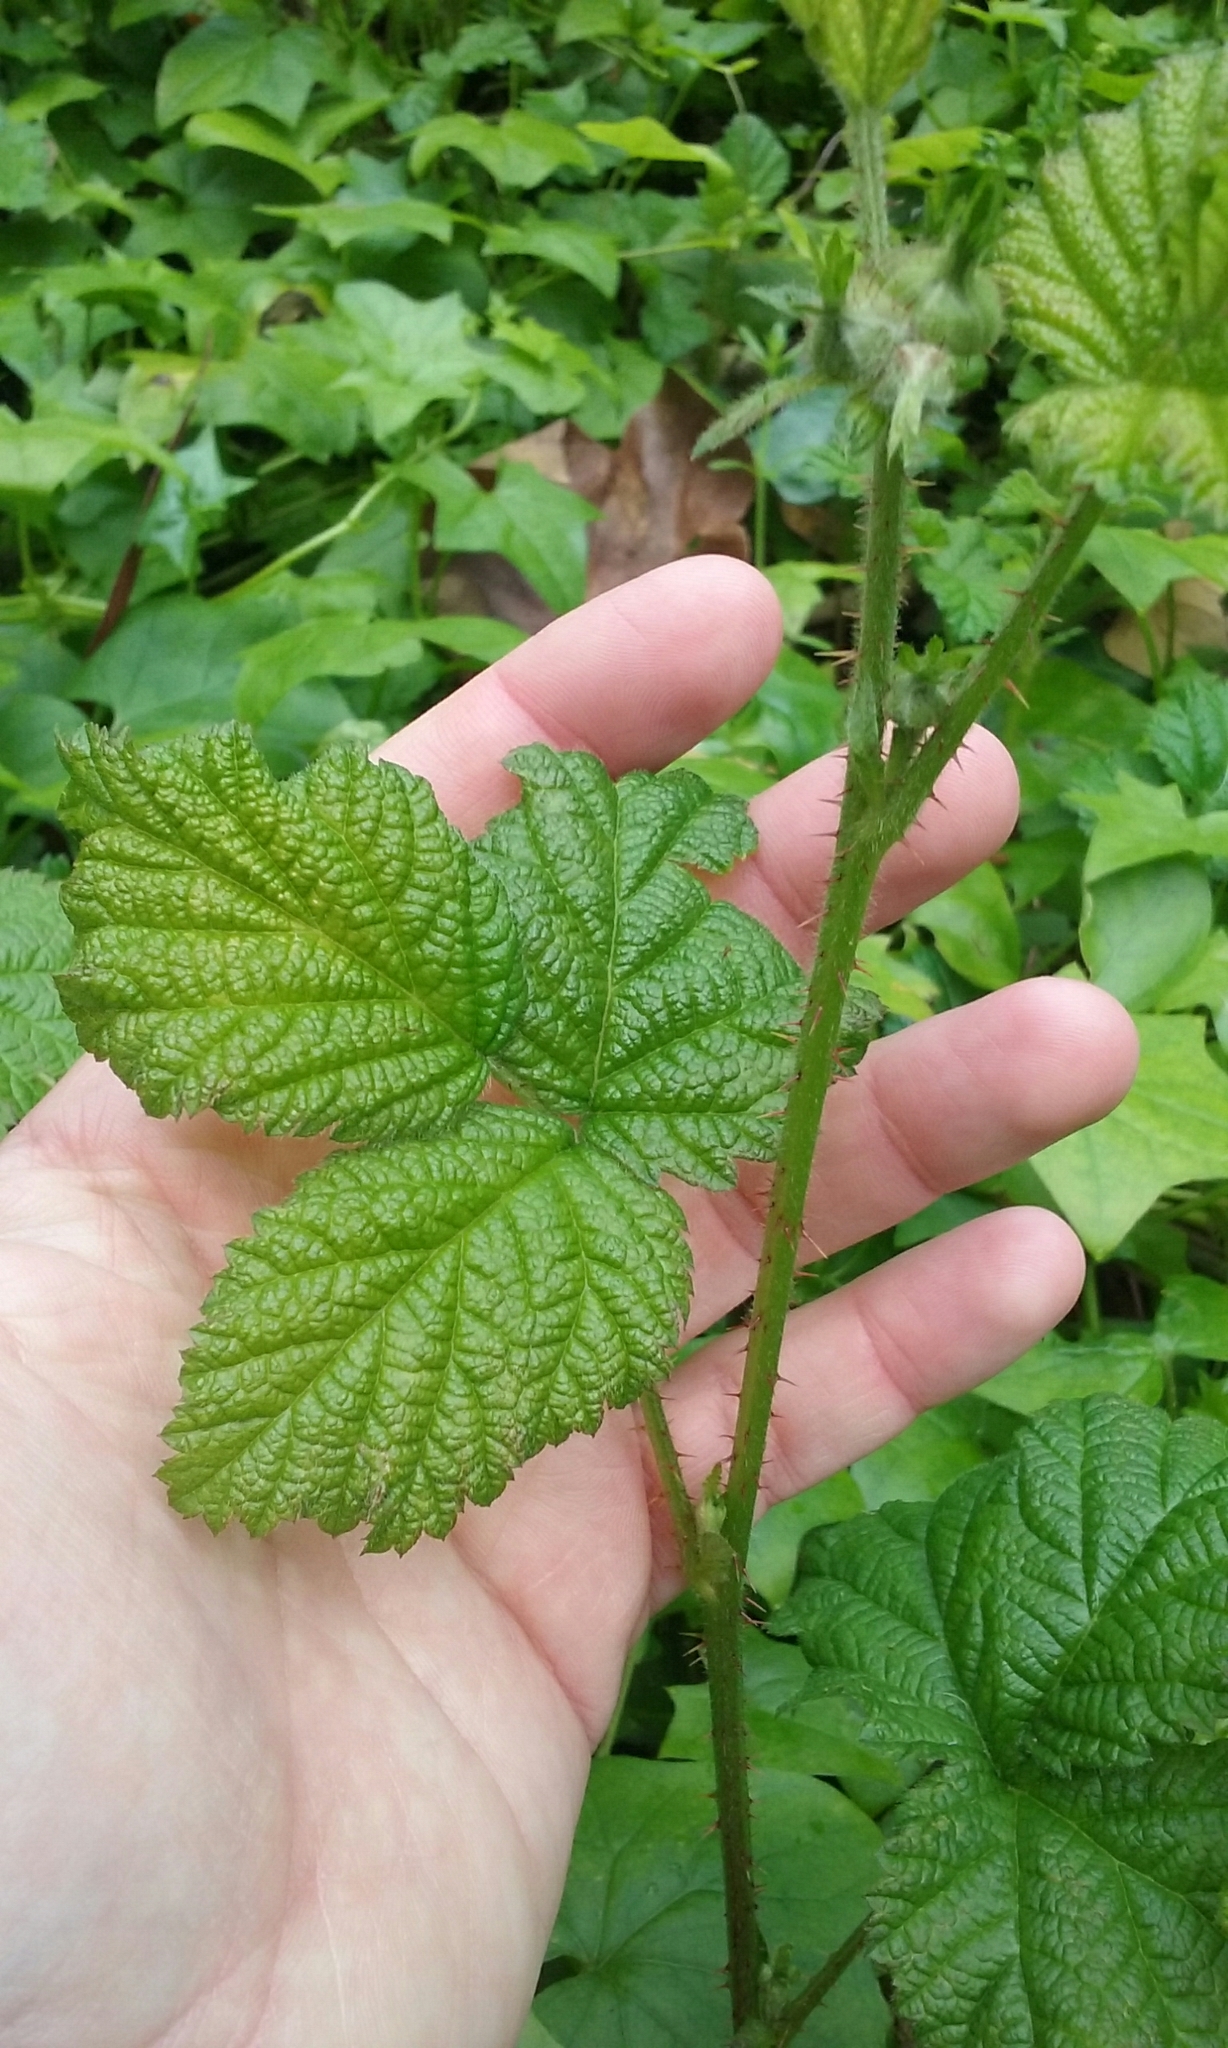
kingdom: Plantae
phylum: Tracheophyta
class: Magnoliopsida
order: Rosales
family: Rosaceae
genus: Rubus
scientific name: Rubus ursinus
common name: Pacific blackberry
